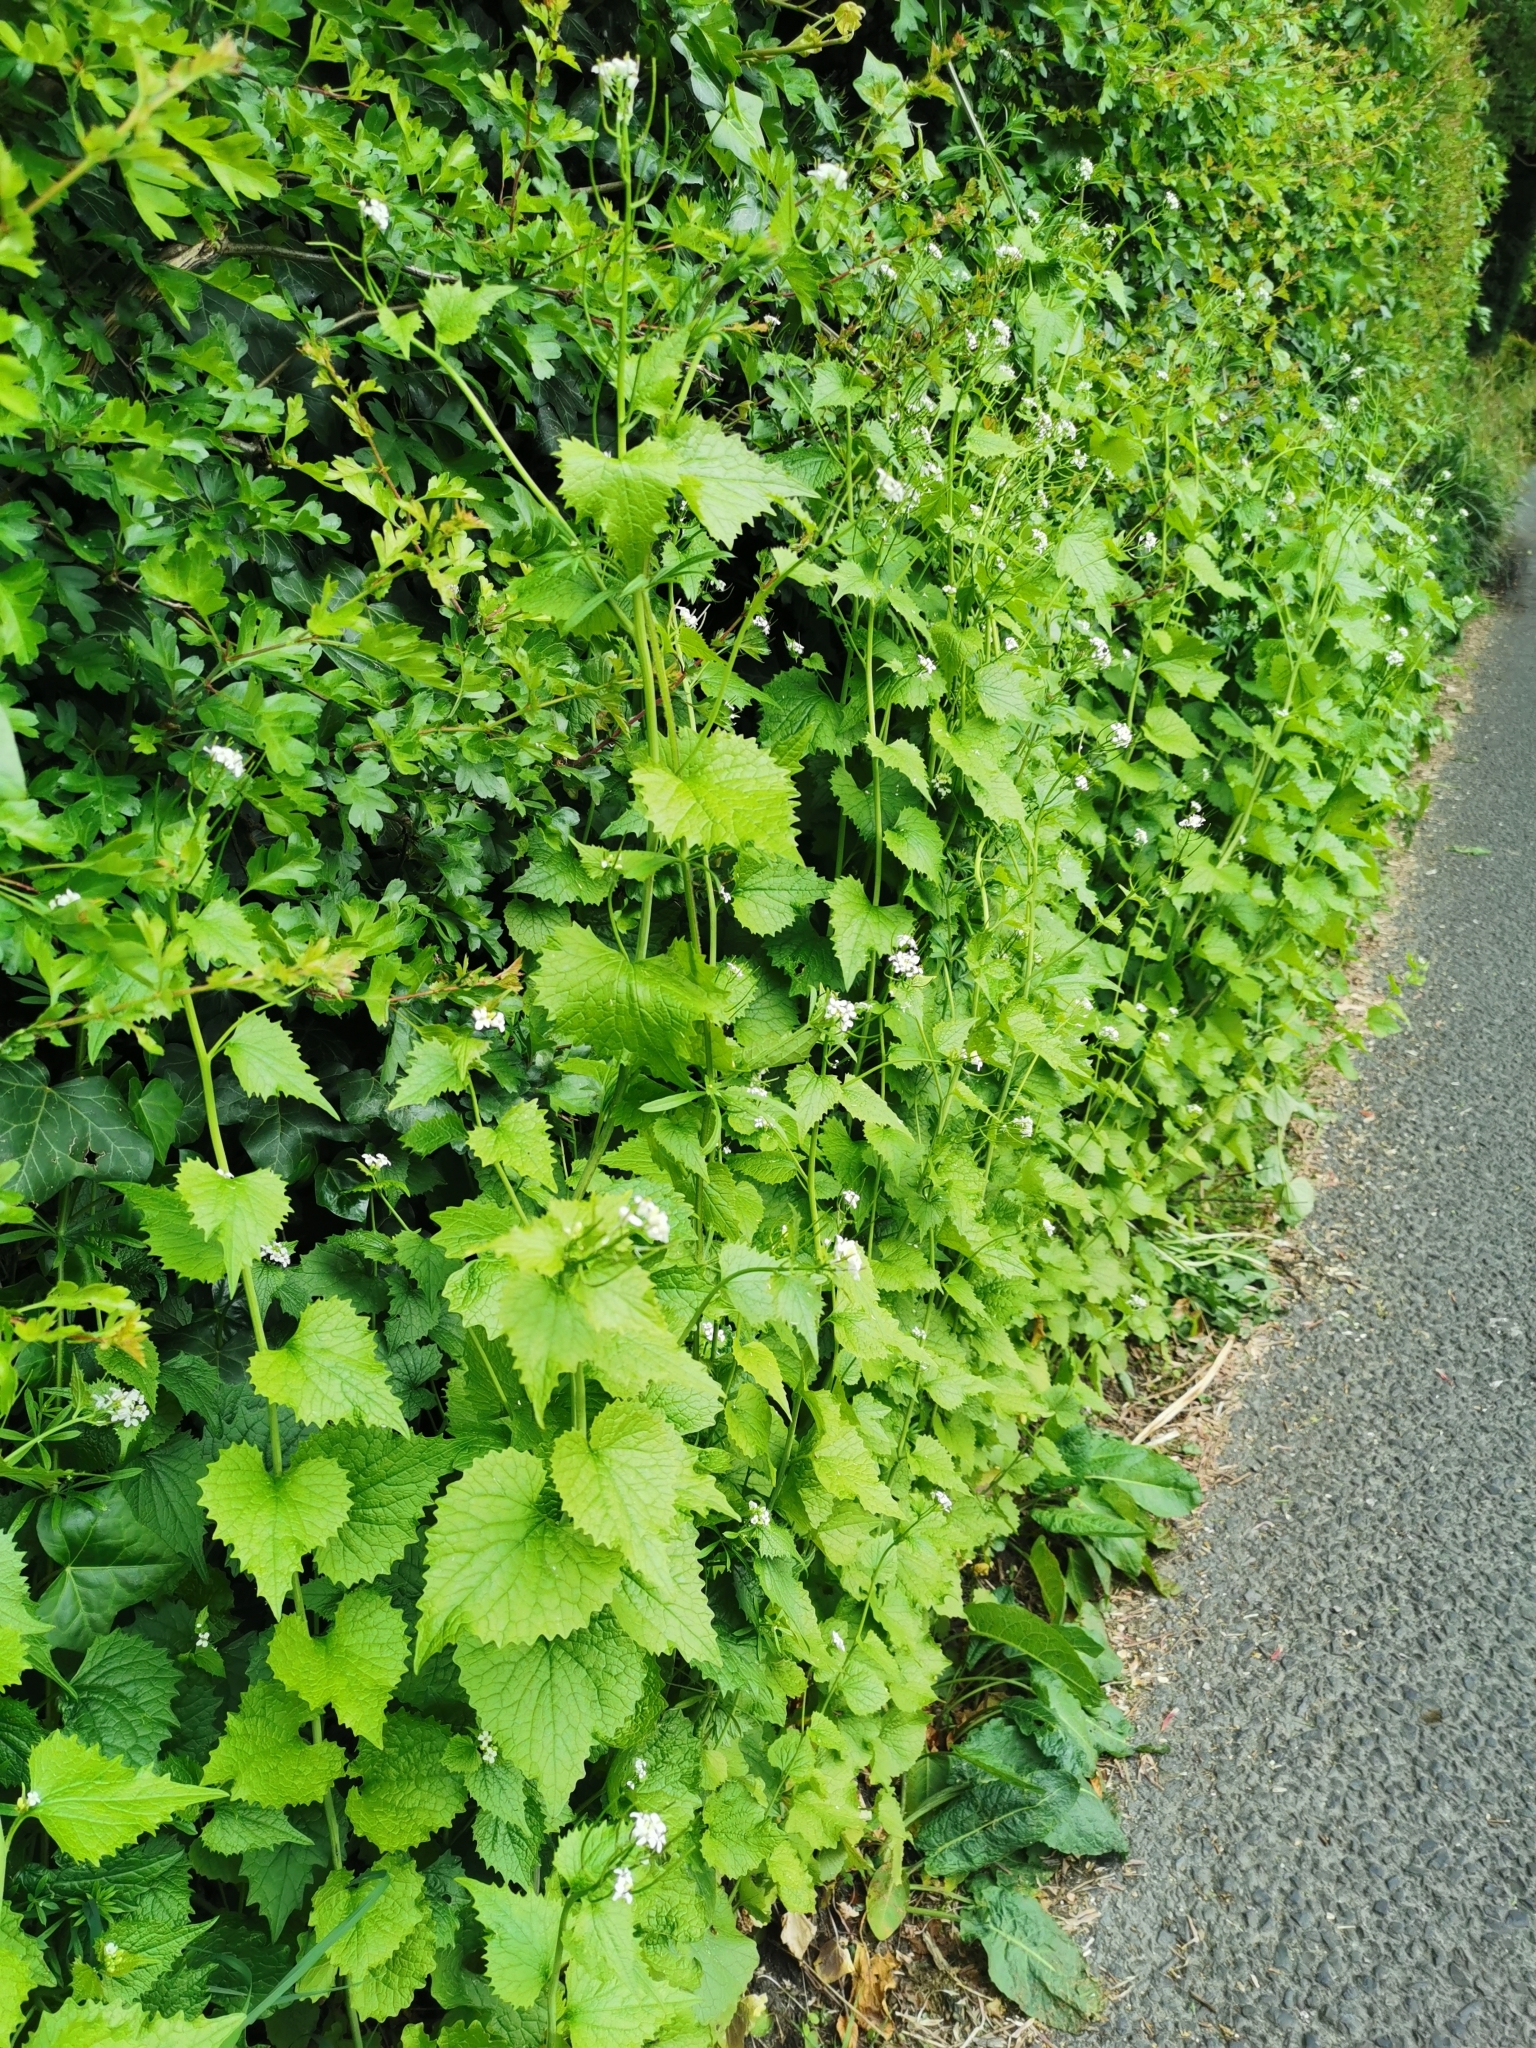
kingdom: Plantae
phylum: Tracheophyta
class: Magnoliopsida
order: Brassicales
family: Brassicaceae
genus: Alliaria
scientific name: Alliaria petiolata
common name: Garlic mustard
